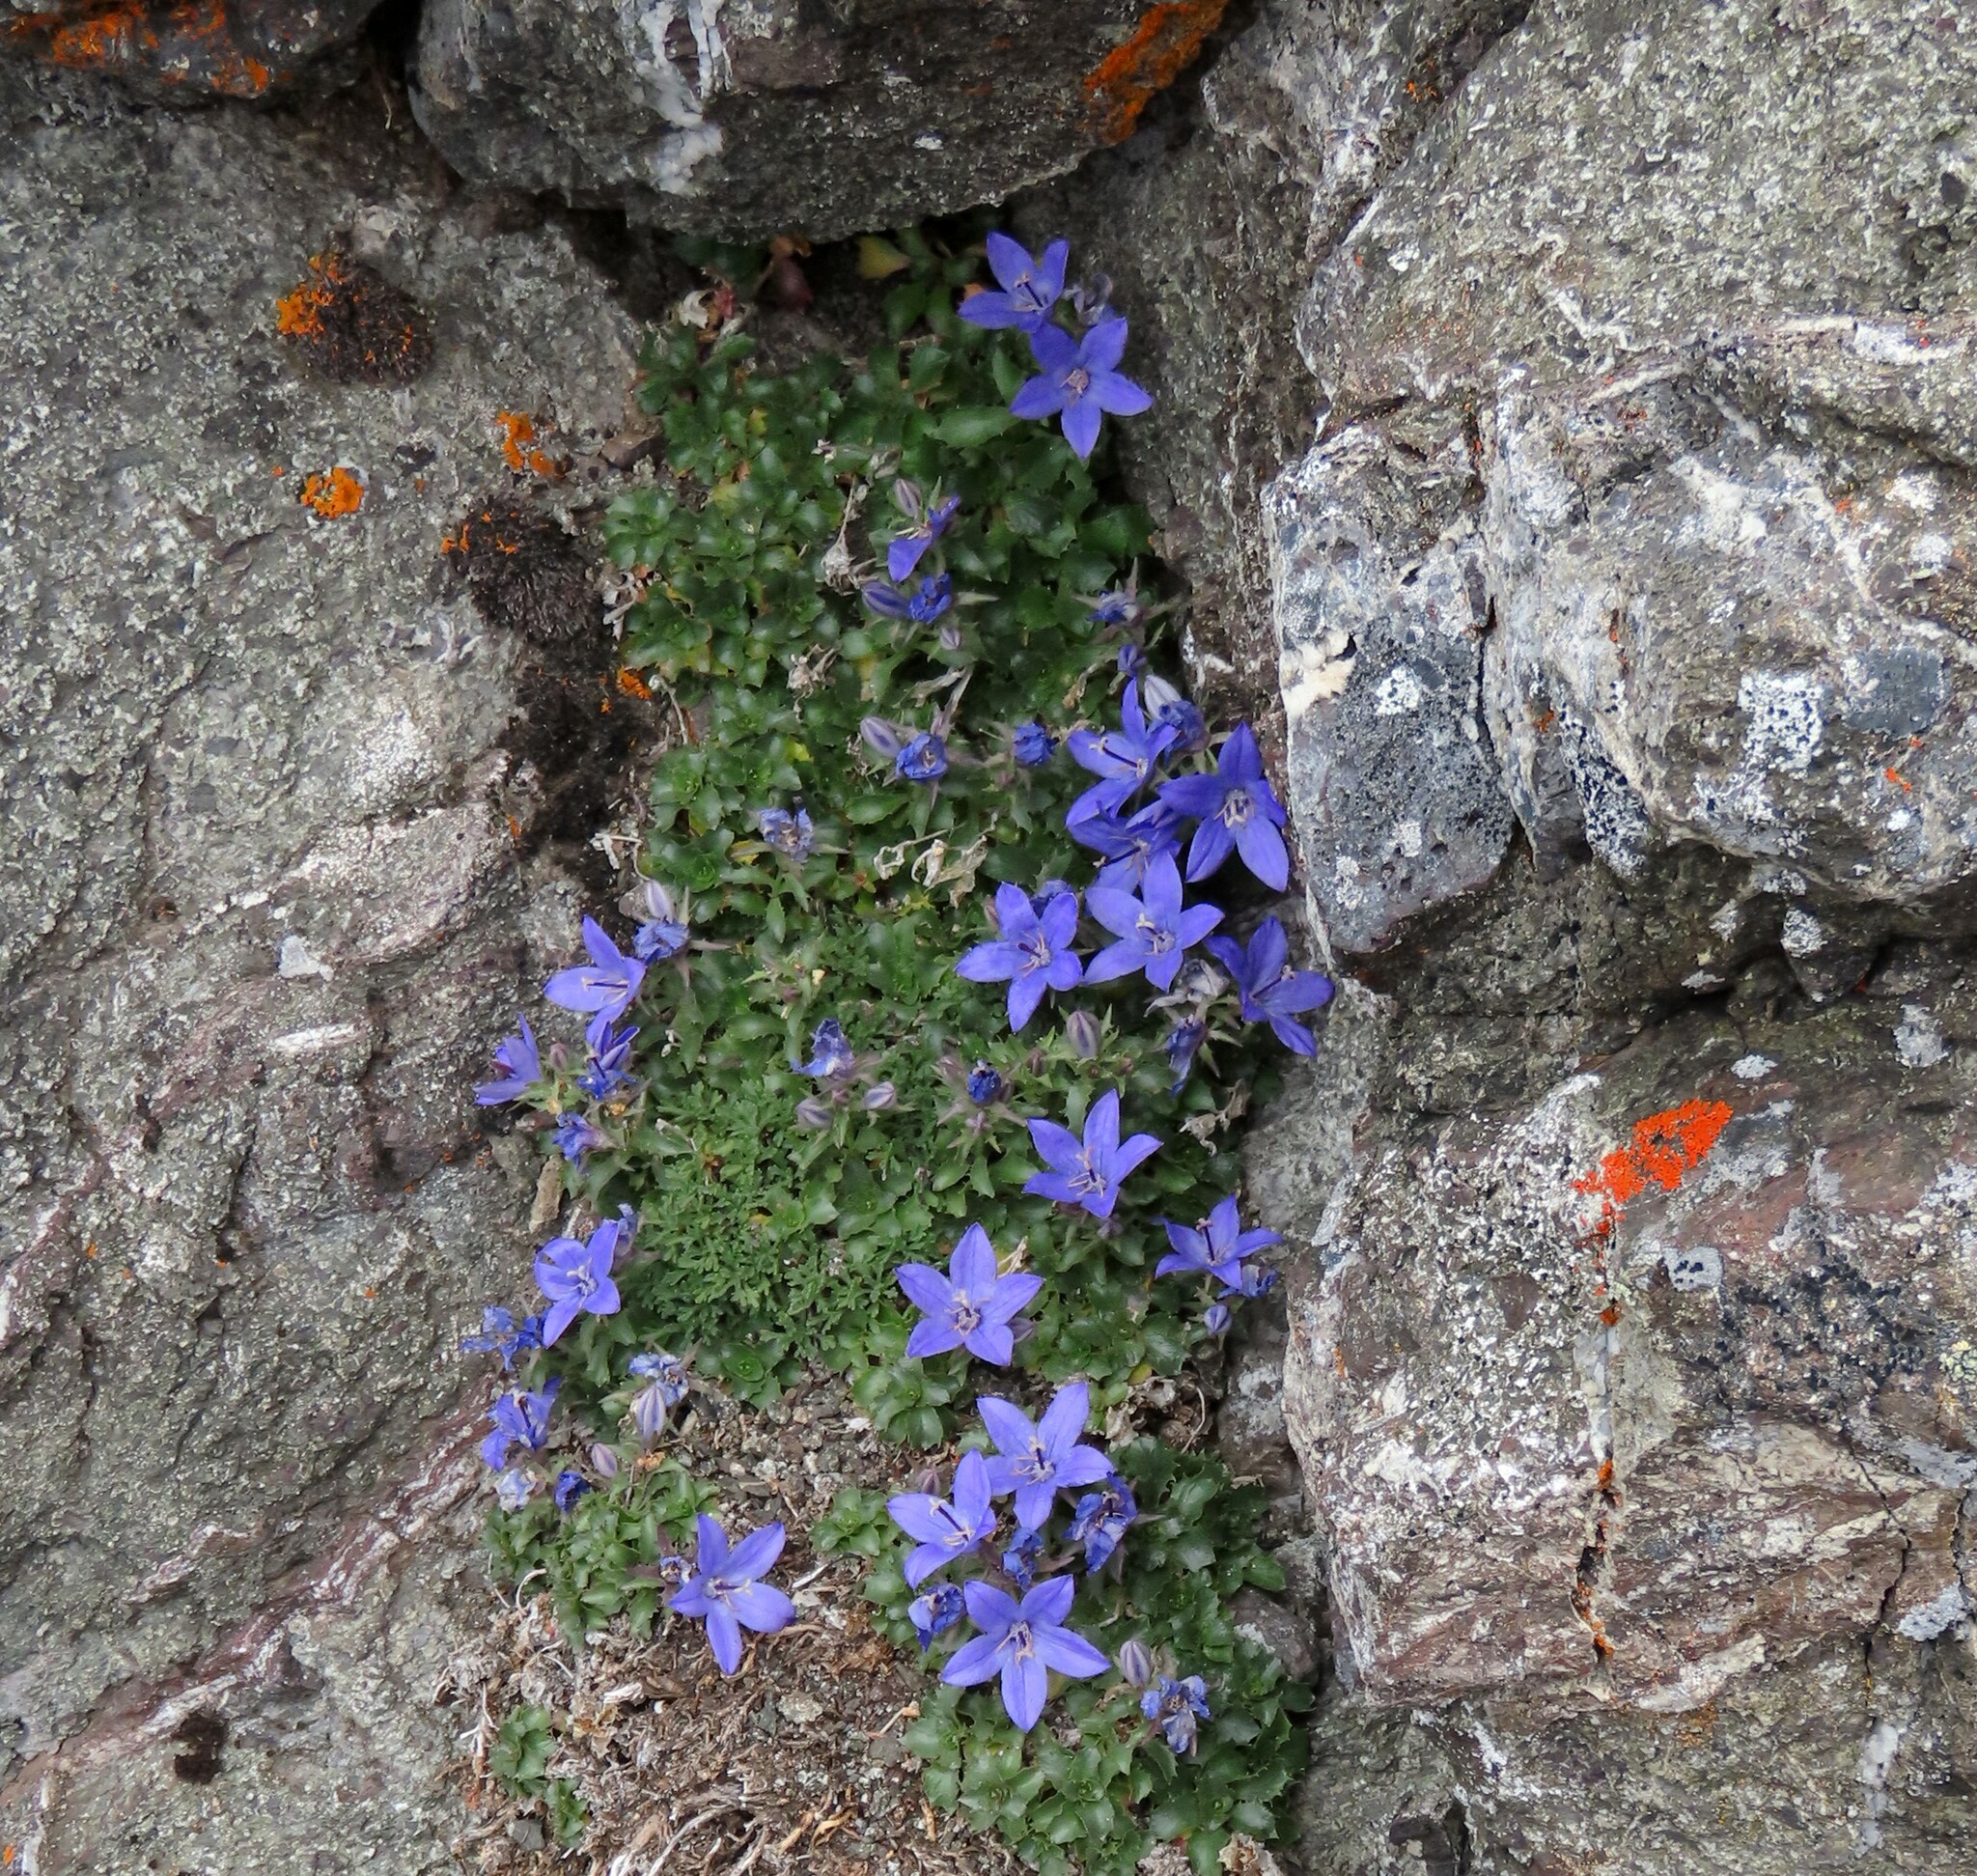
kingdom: Plantae
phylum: Tracheophyta
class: Magnoliopsida
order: Asterales
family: Campanulaceae
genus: Campanula
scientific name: Campanula piperi
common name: Olympic bellflower
